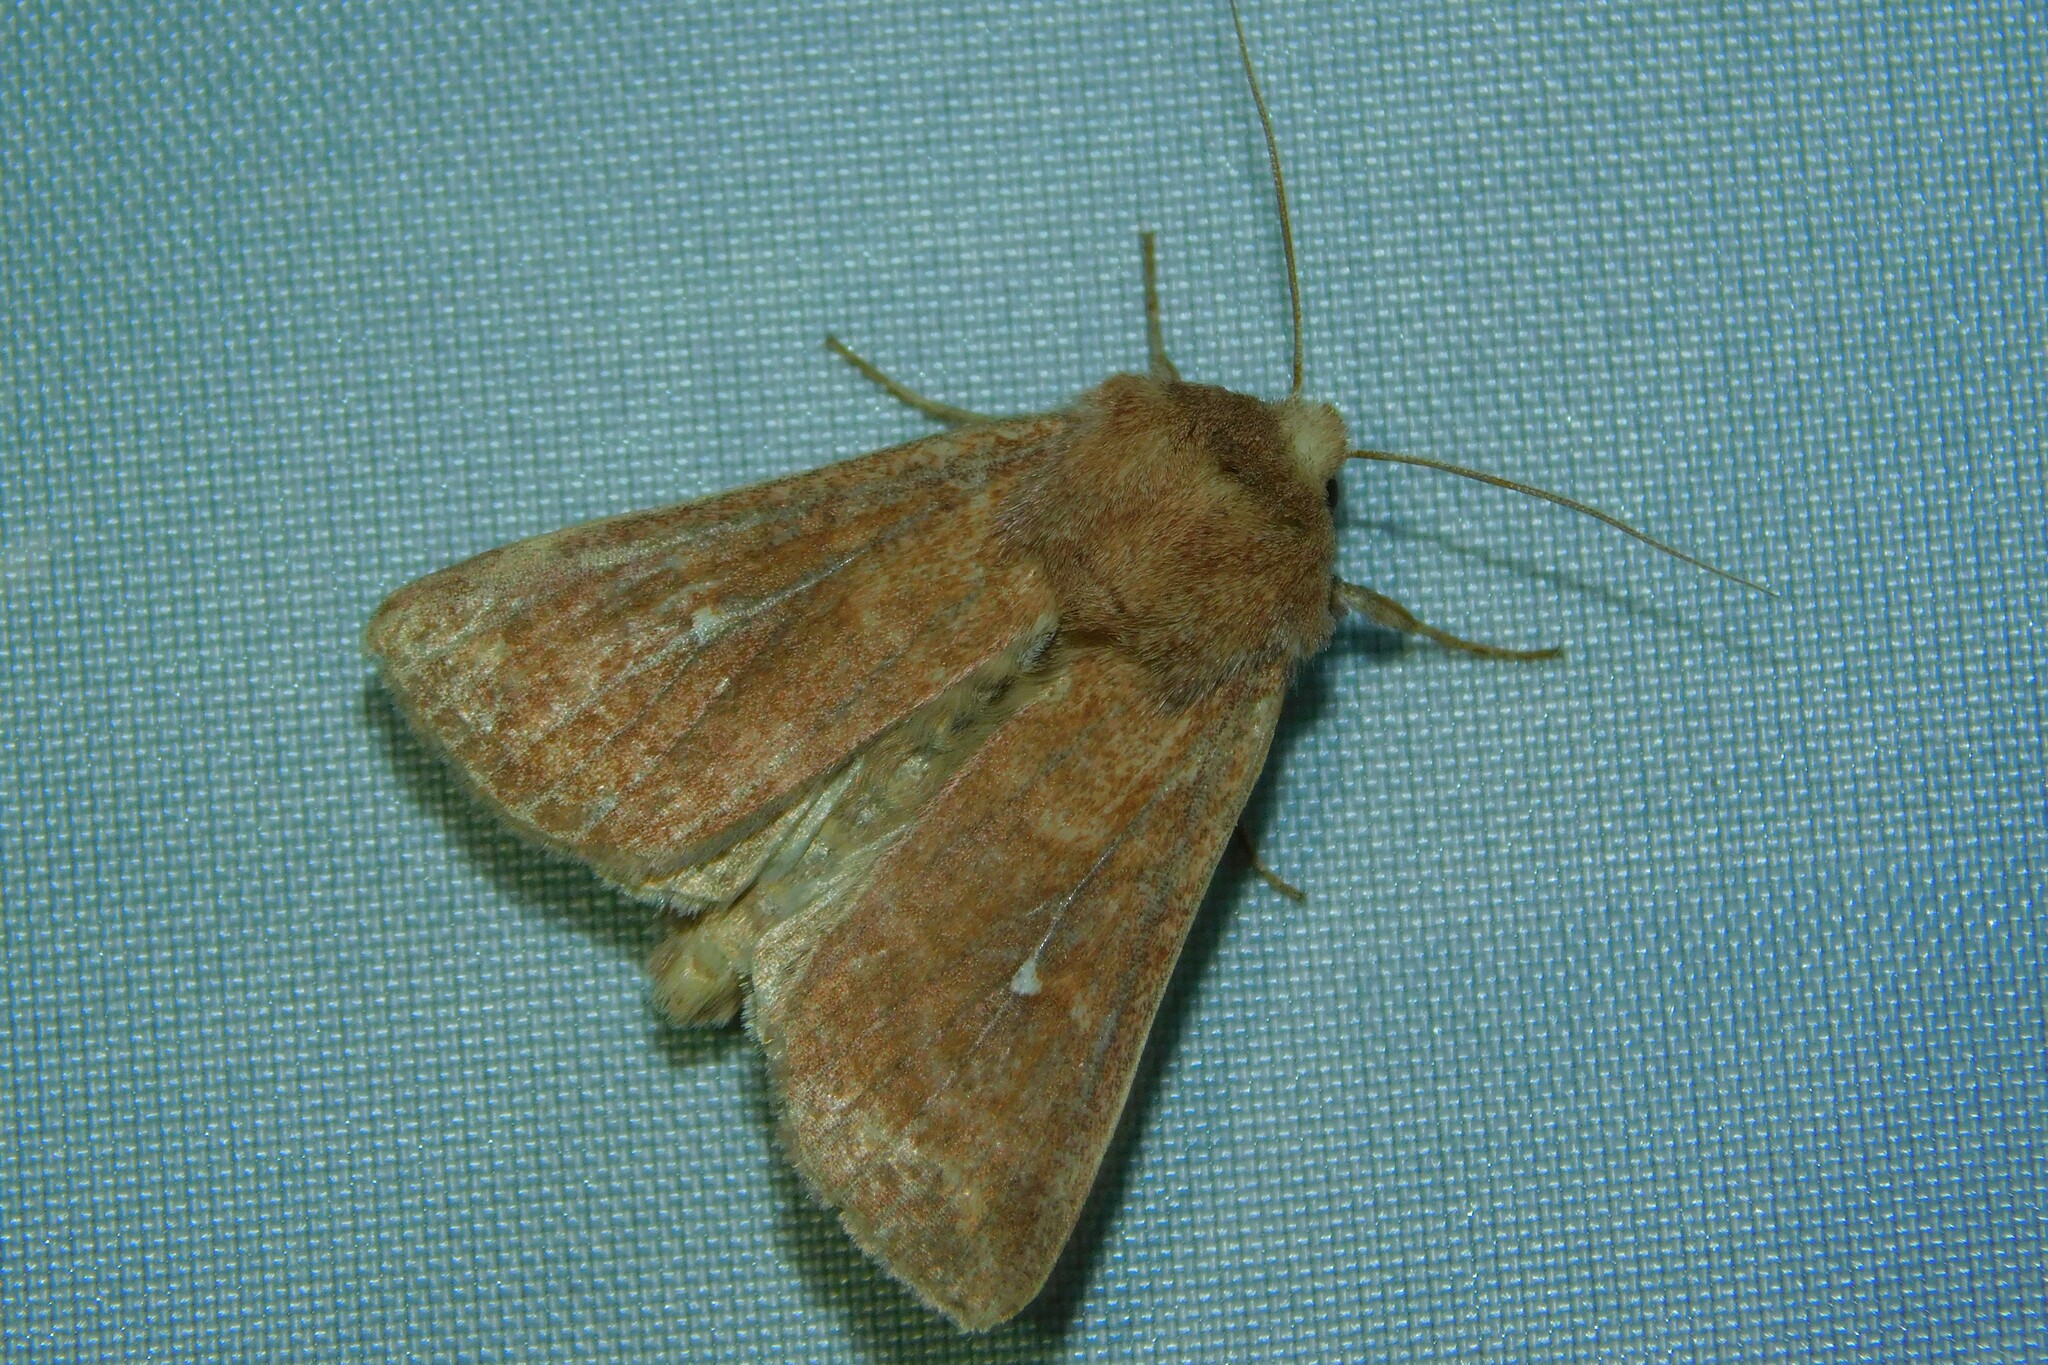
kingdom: Animalia
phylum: Arthropoda
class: Insecta
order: Lepidoptera
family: Noctuidae
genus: Mythimna
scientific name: Mythimna albipuncta
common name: White-point
